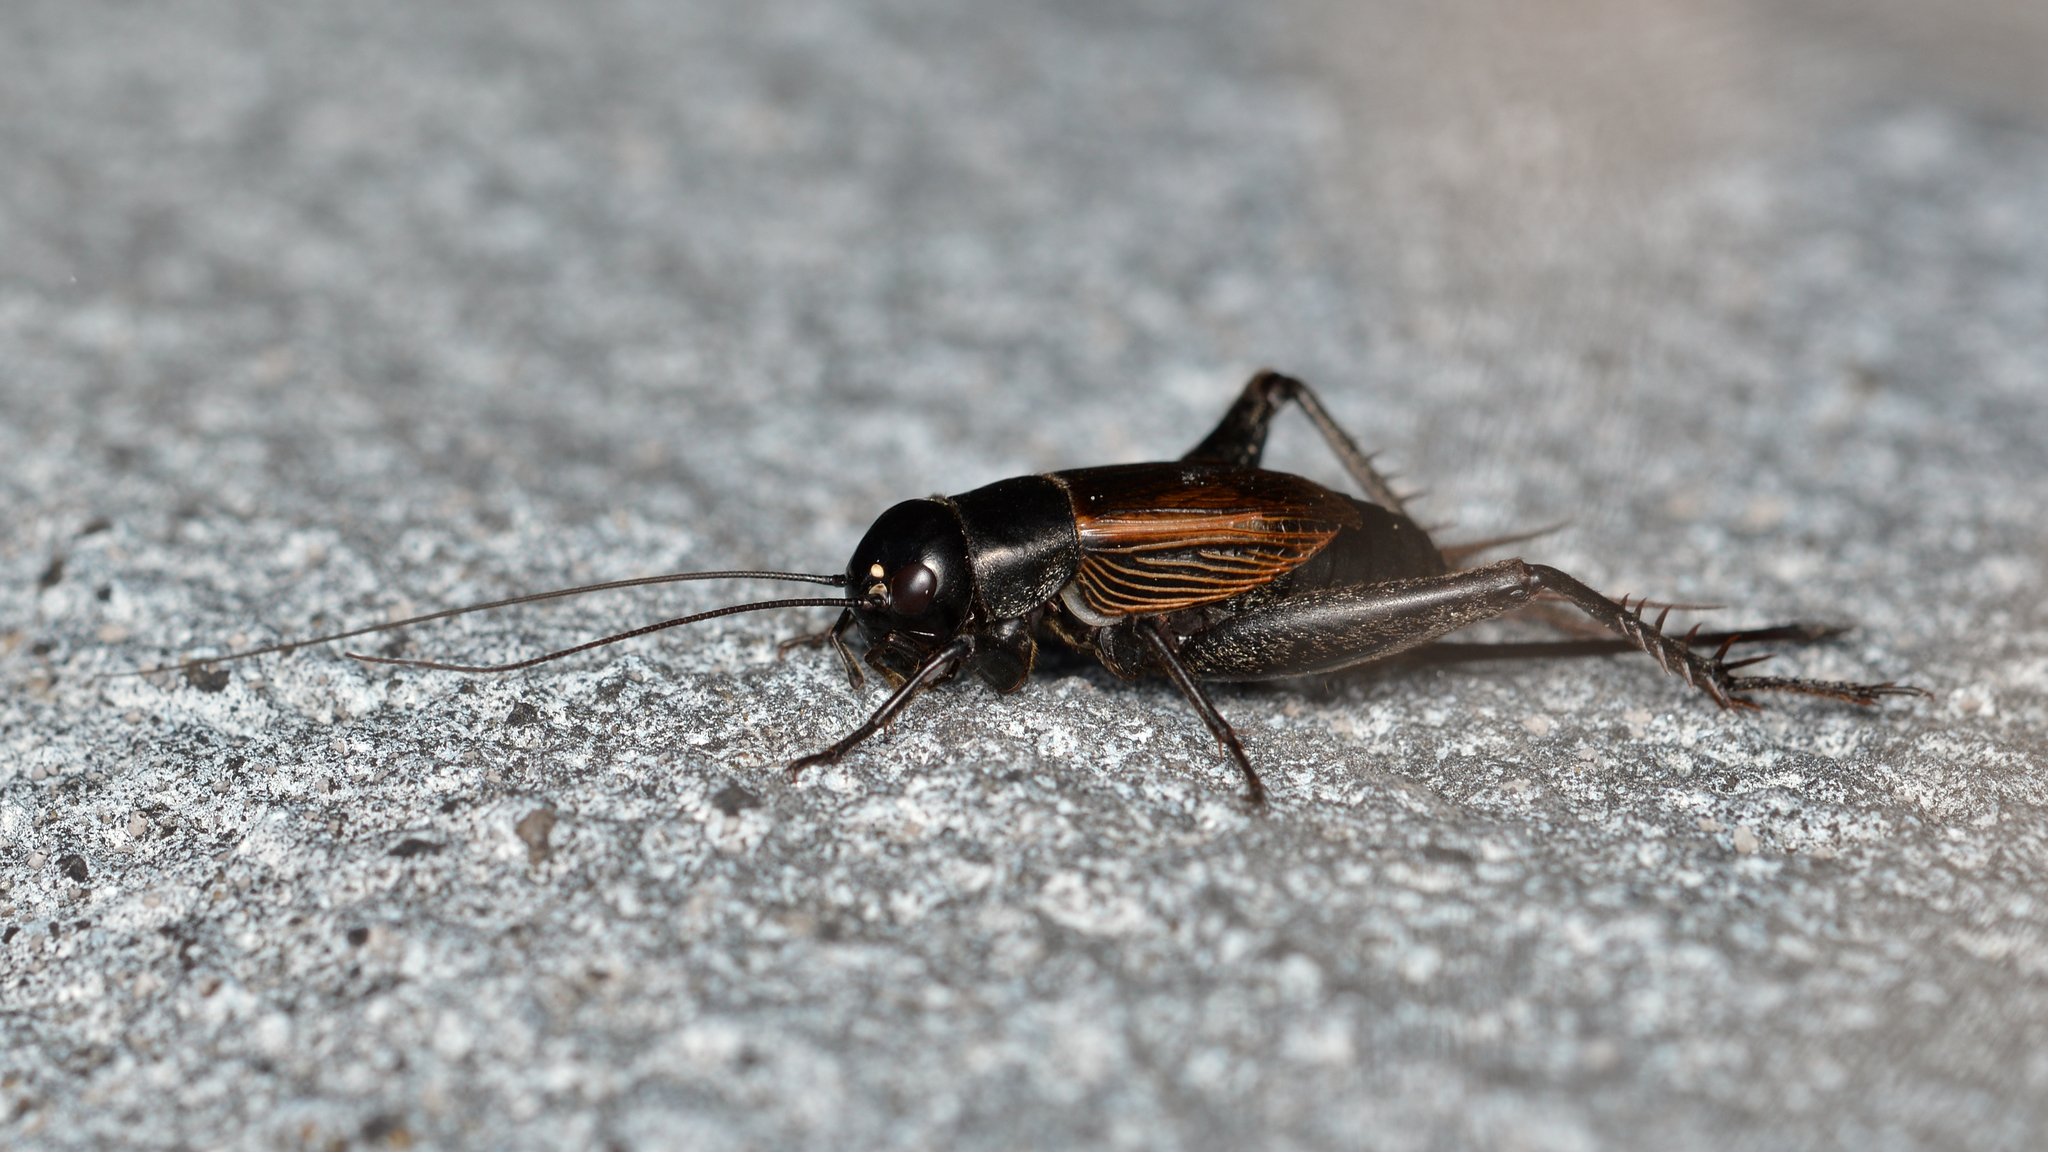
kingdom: Animalia
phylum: Arthropoda
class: Insecta
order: Orthoptera
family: Gryllidae
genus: Gryllus
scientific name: Gryllus pennsylvanicus
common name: Fall field cricket
